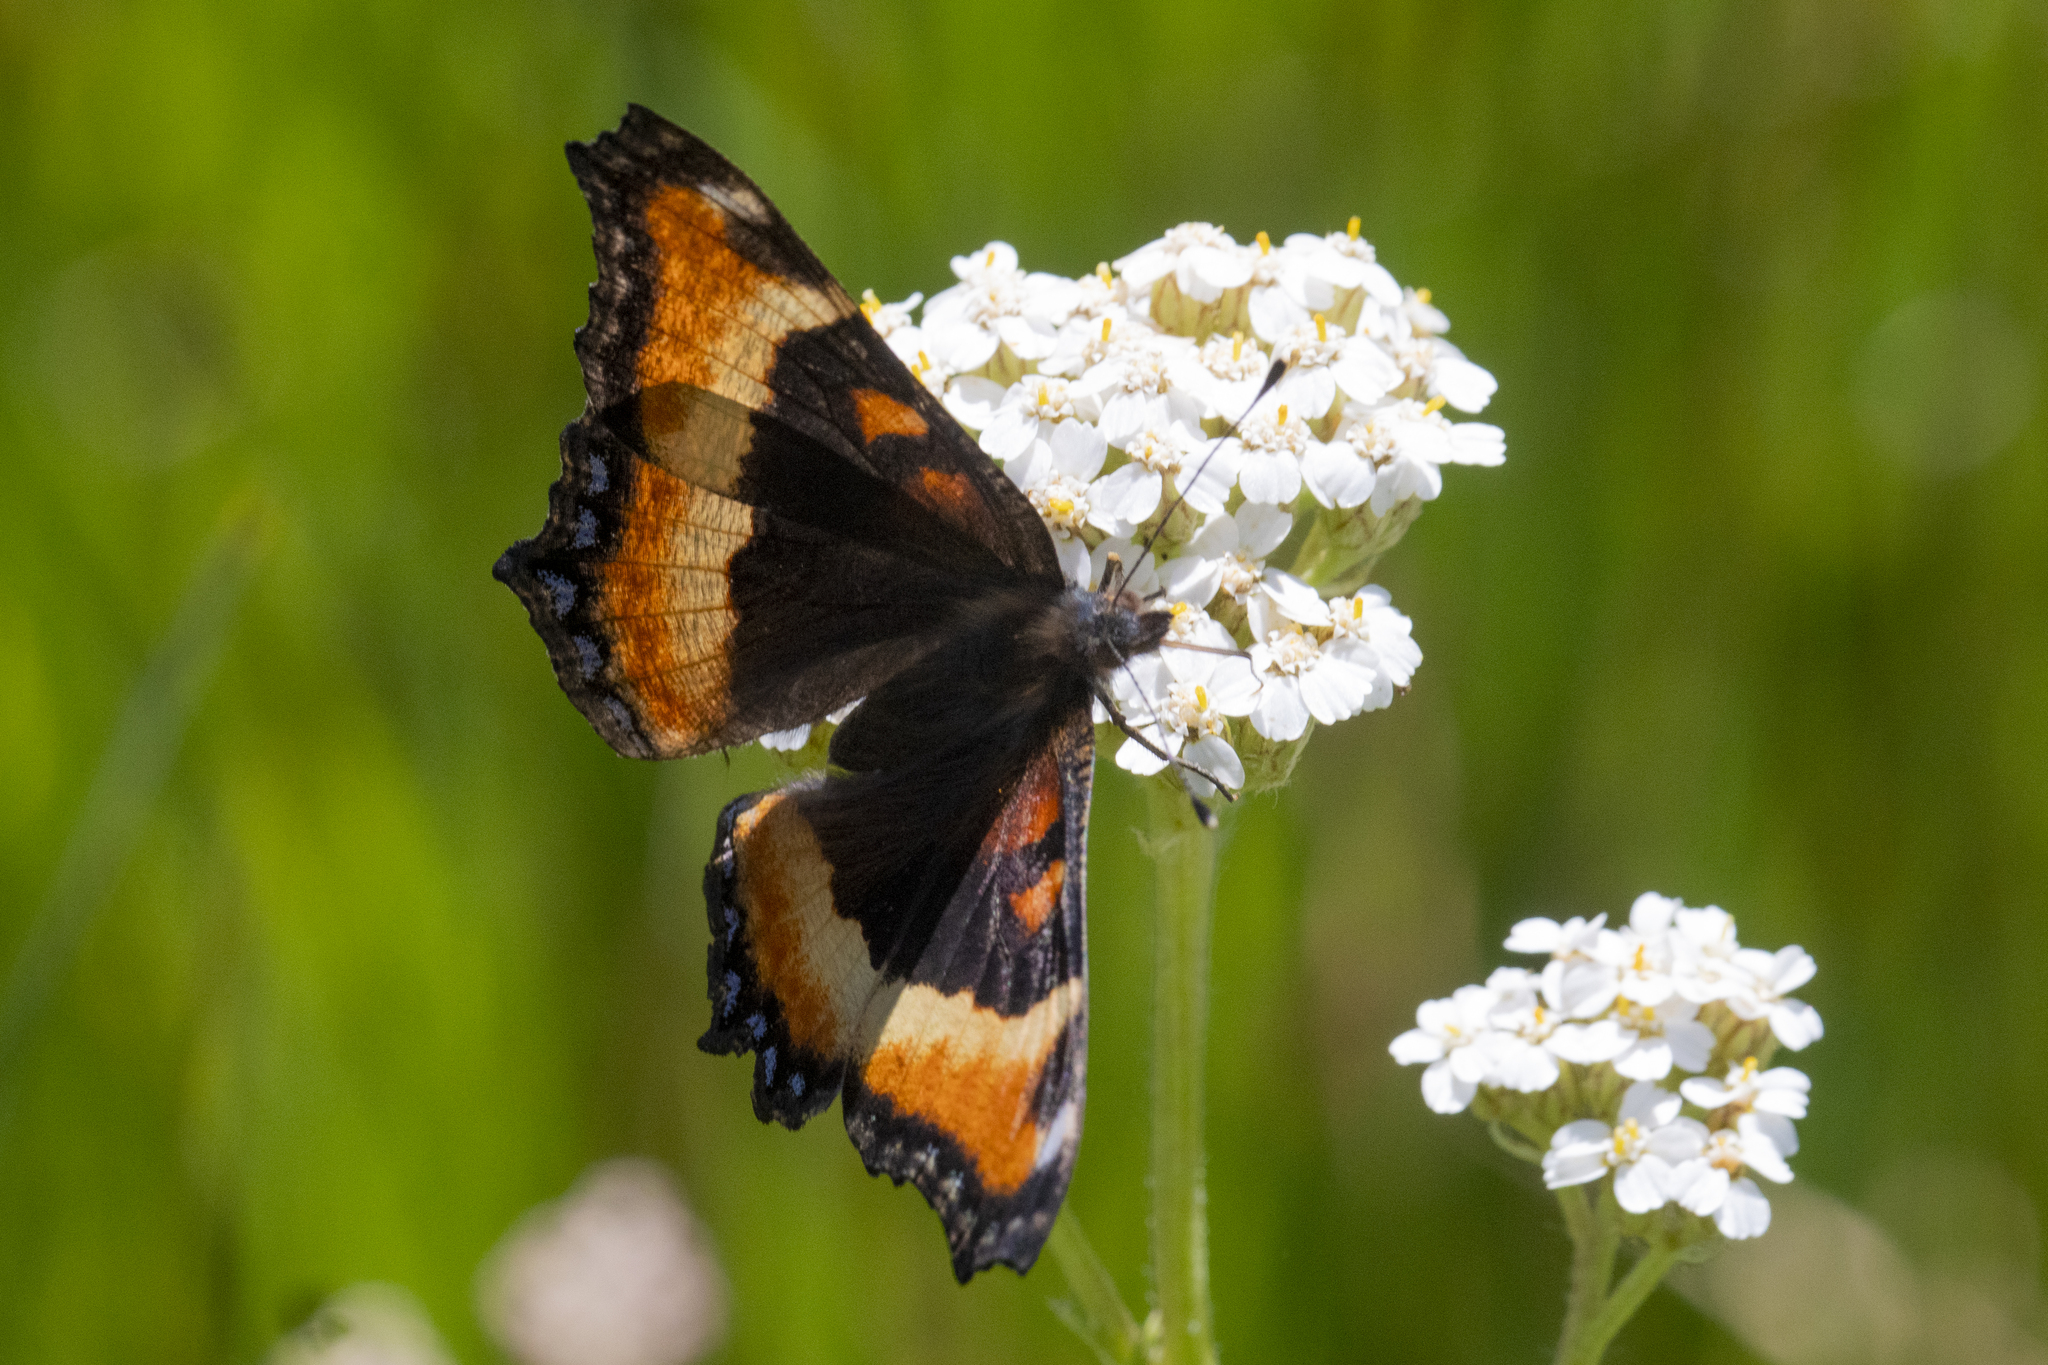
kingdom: Animalia
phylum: Arthropoda
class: Insecta
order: Lepidoptera
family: Nymphalidae
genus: Aglais
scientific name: Aglais milberti
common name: Milbert's tortoiseshell
